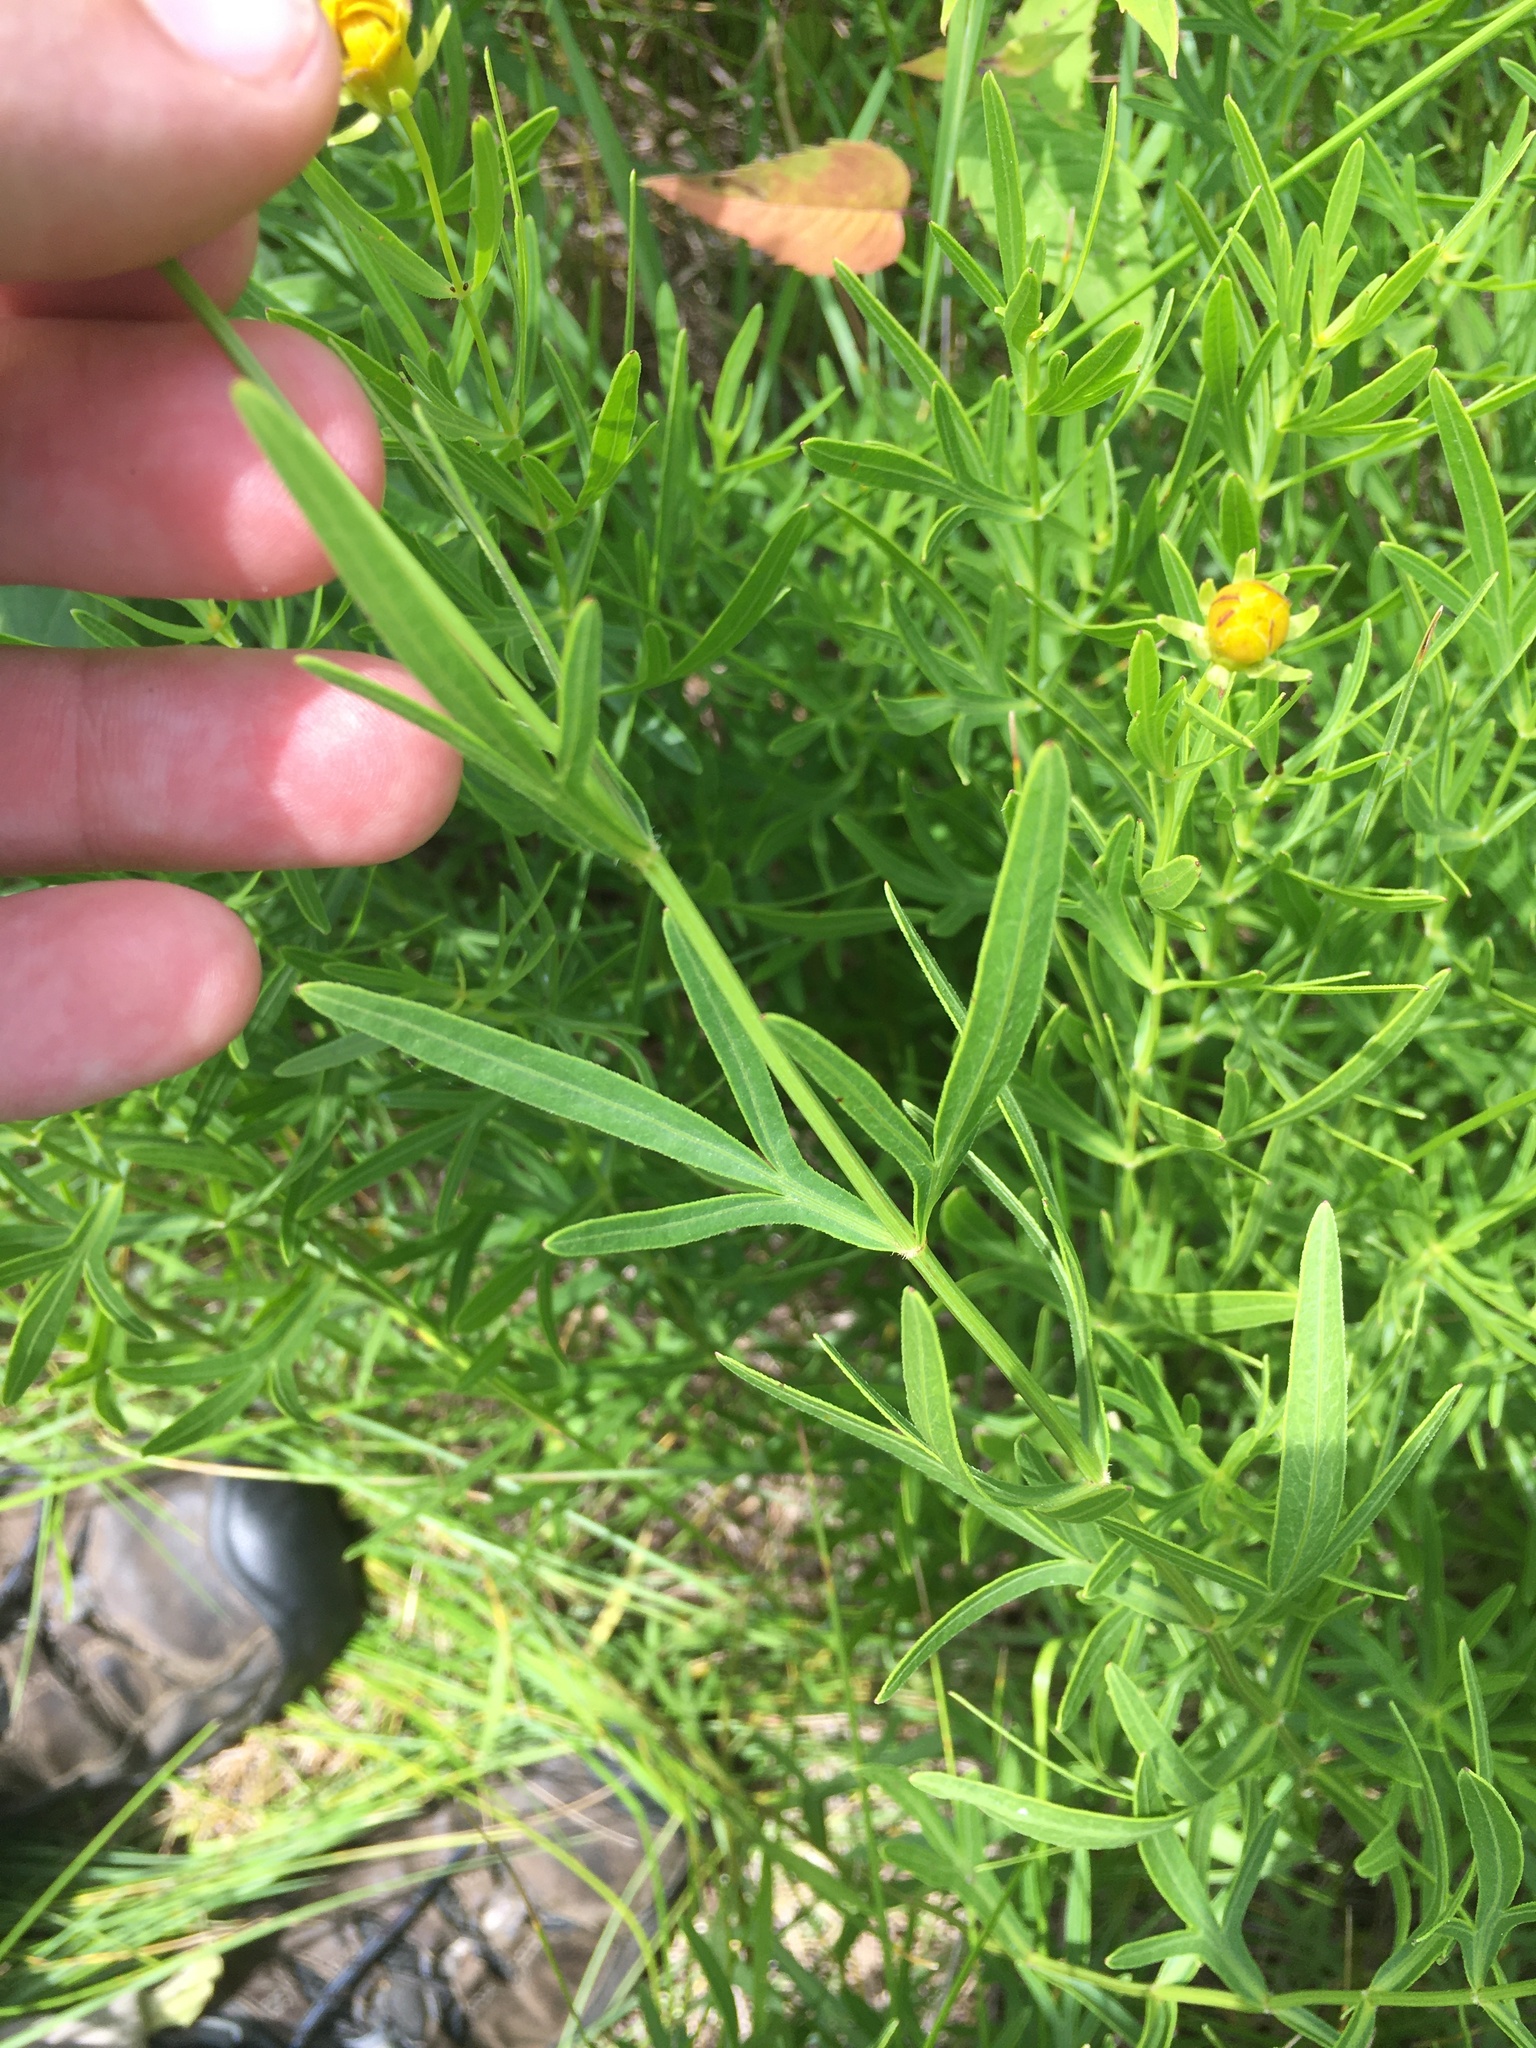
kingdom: Plantae
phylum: Tracheophyta
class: Magnoliopsida
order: Asterales
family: Asteraceae
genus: Coreopsis
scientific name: Coreopsis palmata
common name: Prairie coreopsis
